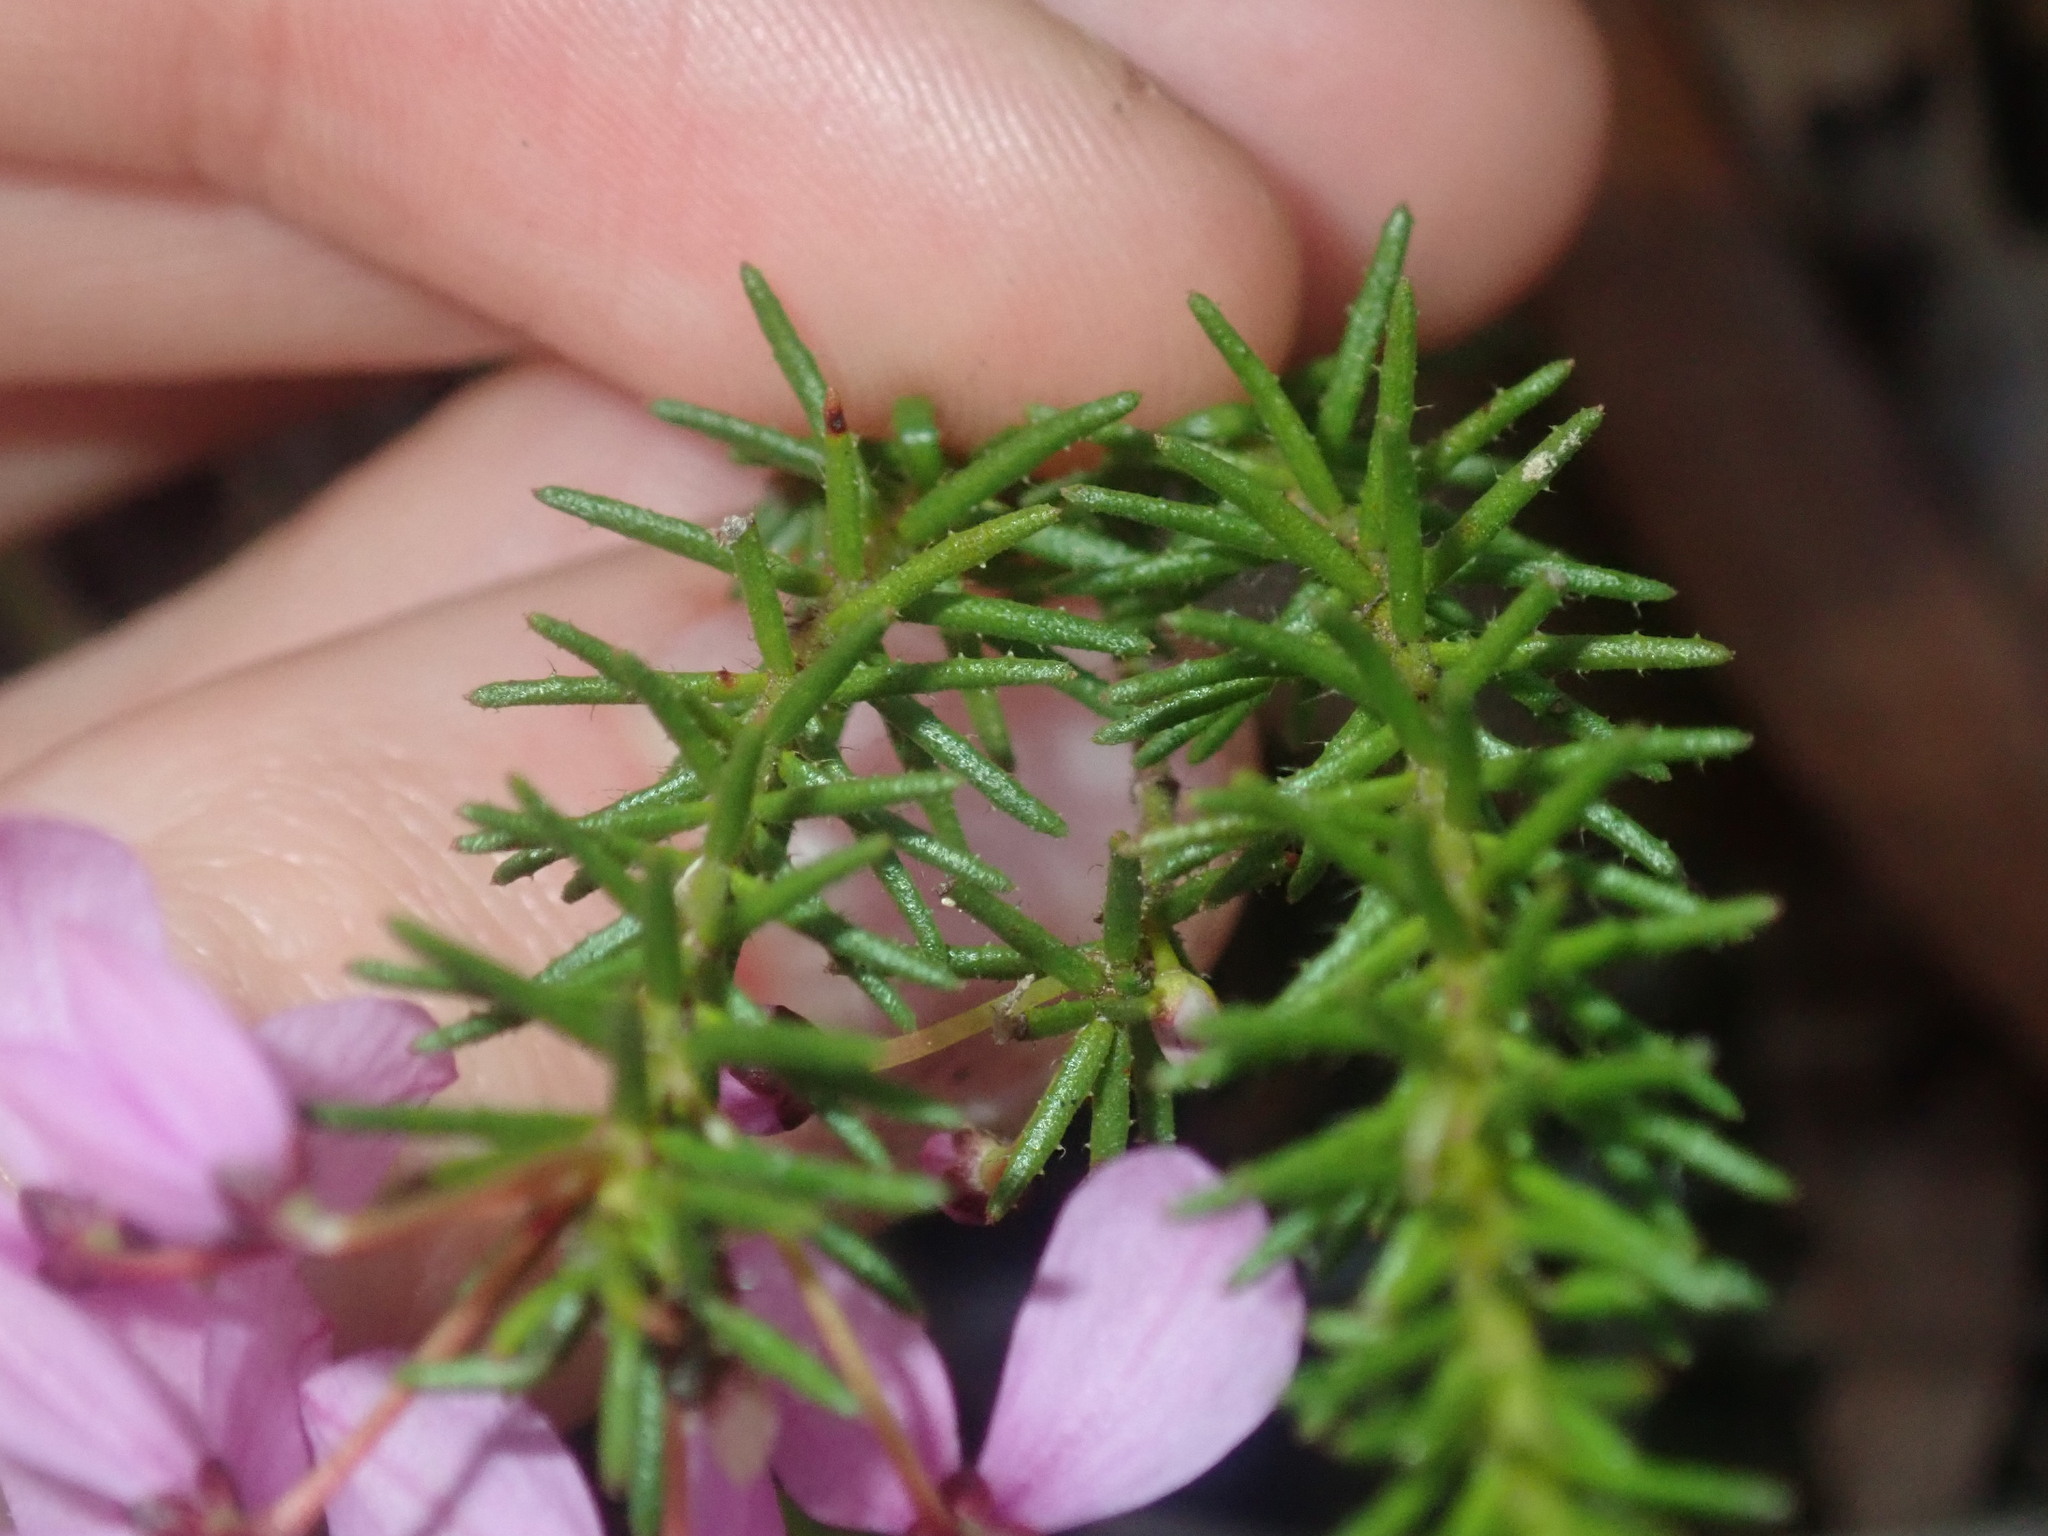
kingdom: Plantae
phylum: Tracheophyta
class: Magnoliopsida
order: Oxalidales
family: Elaeocarpaceae
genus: Tetratheca
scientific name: Tetratheca neglecta
